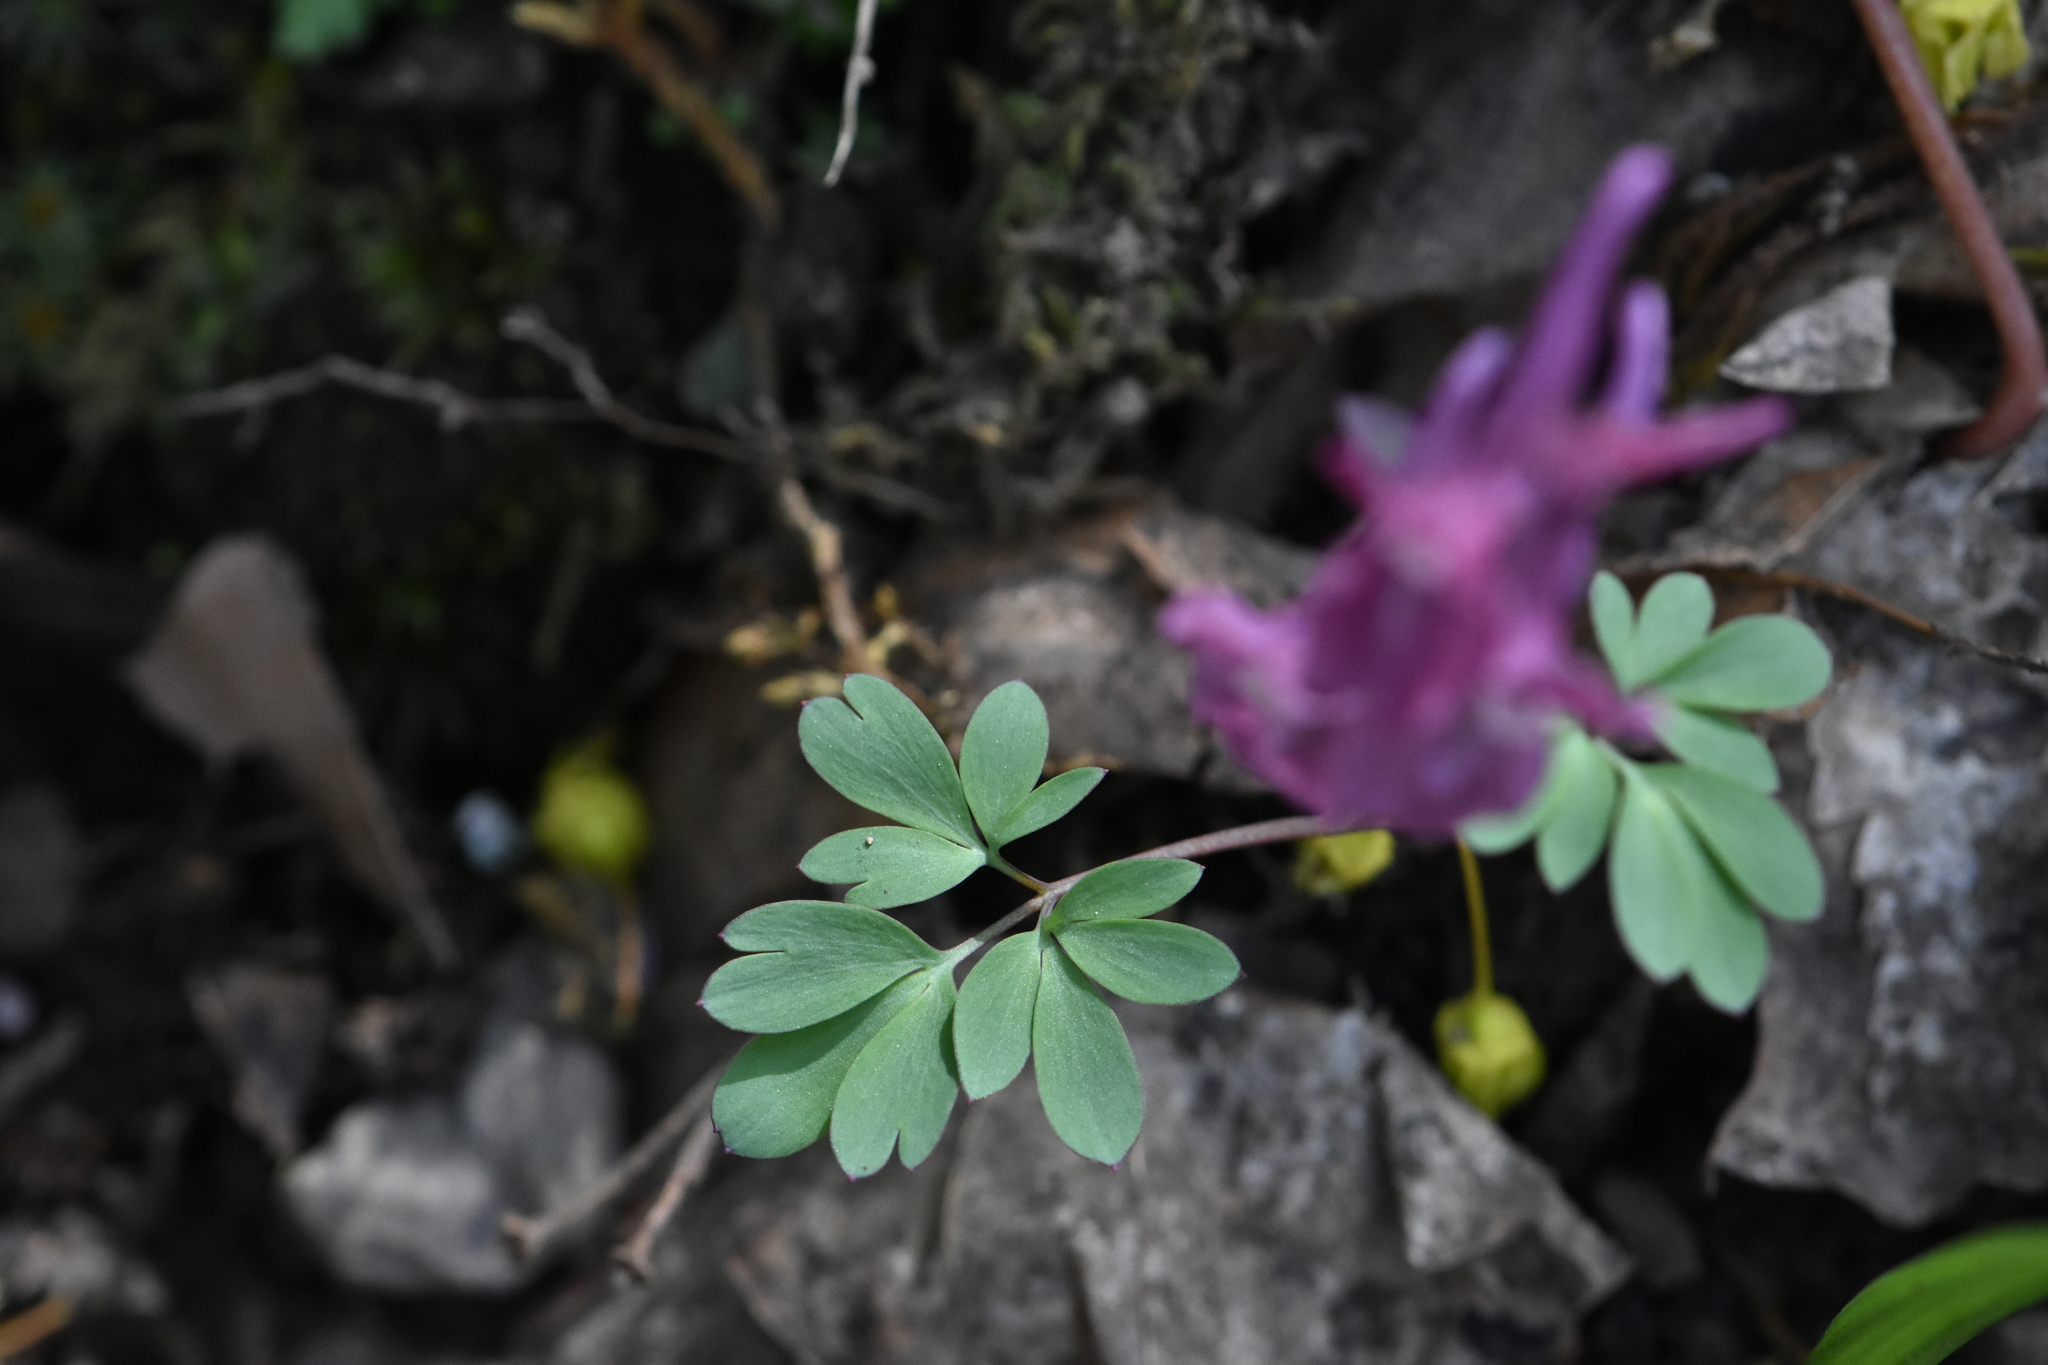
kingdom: Plantae
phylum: Tracheophyta
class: Magnoliopsida
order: Ranunculales
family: Papaveraceae
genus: Corydalis
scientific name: Corydalis caucasica
